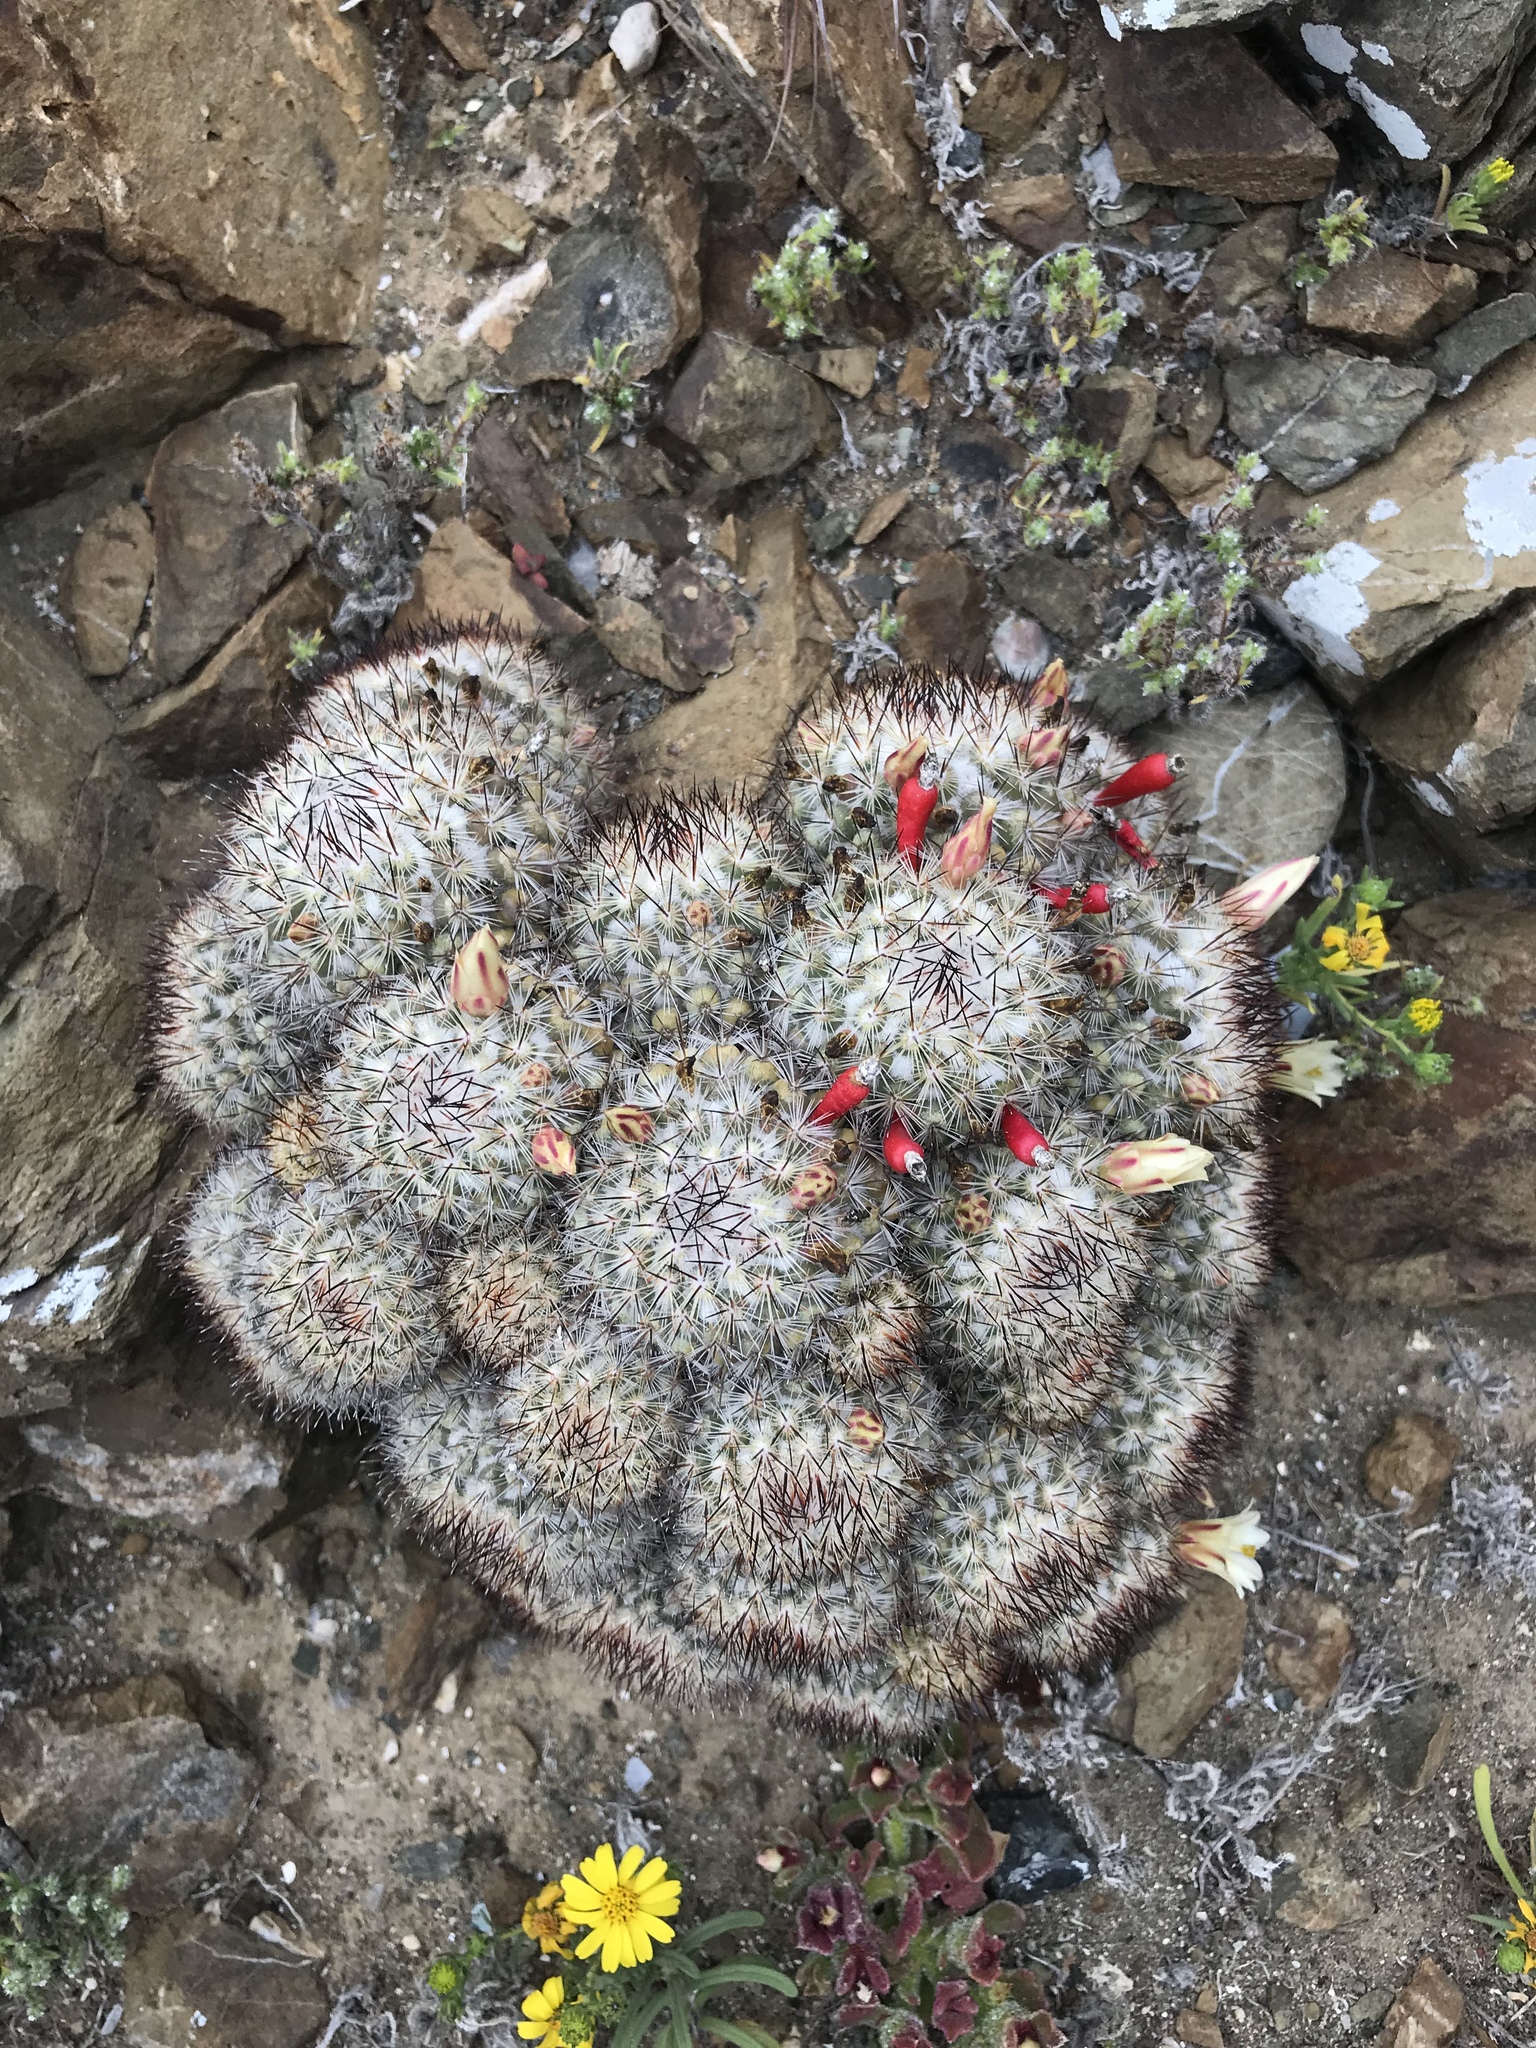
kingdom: Plantae
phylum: Tracheophyta
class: Magnoliopsida
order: Caryophyllales
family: Cactaceae
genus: Cochemiea
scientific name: Cochemiea palmeri
